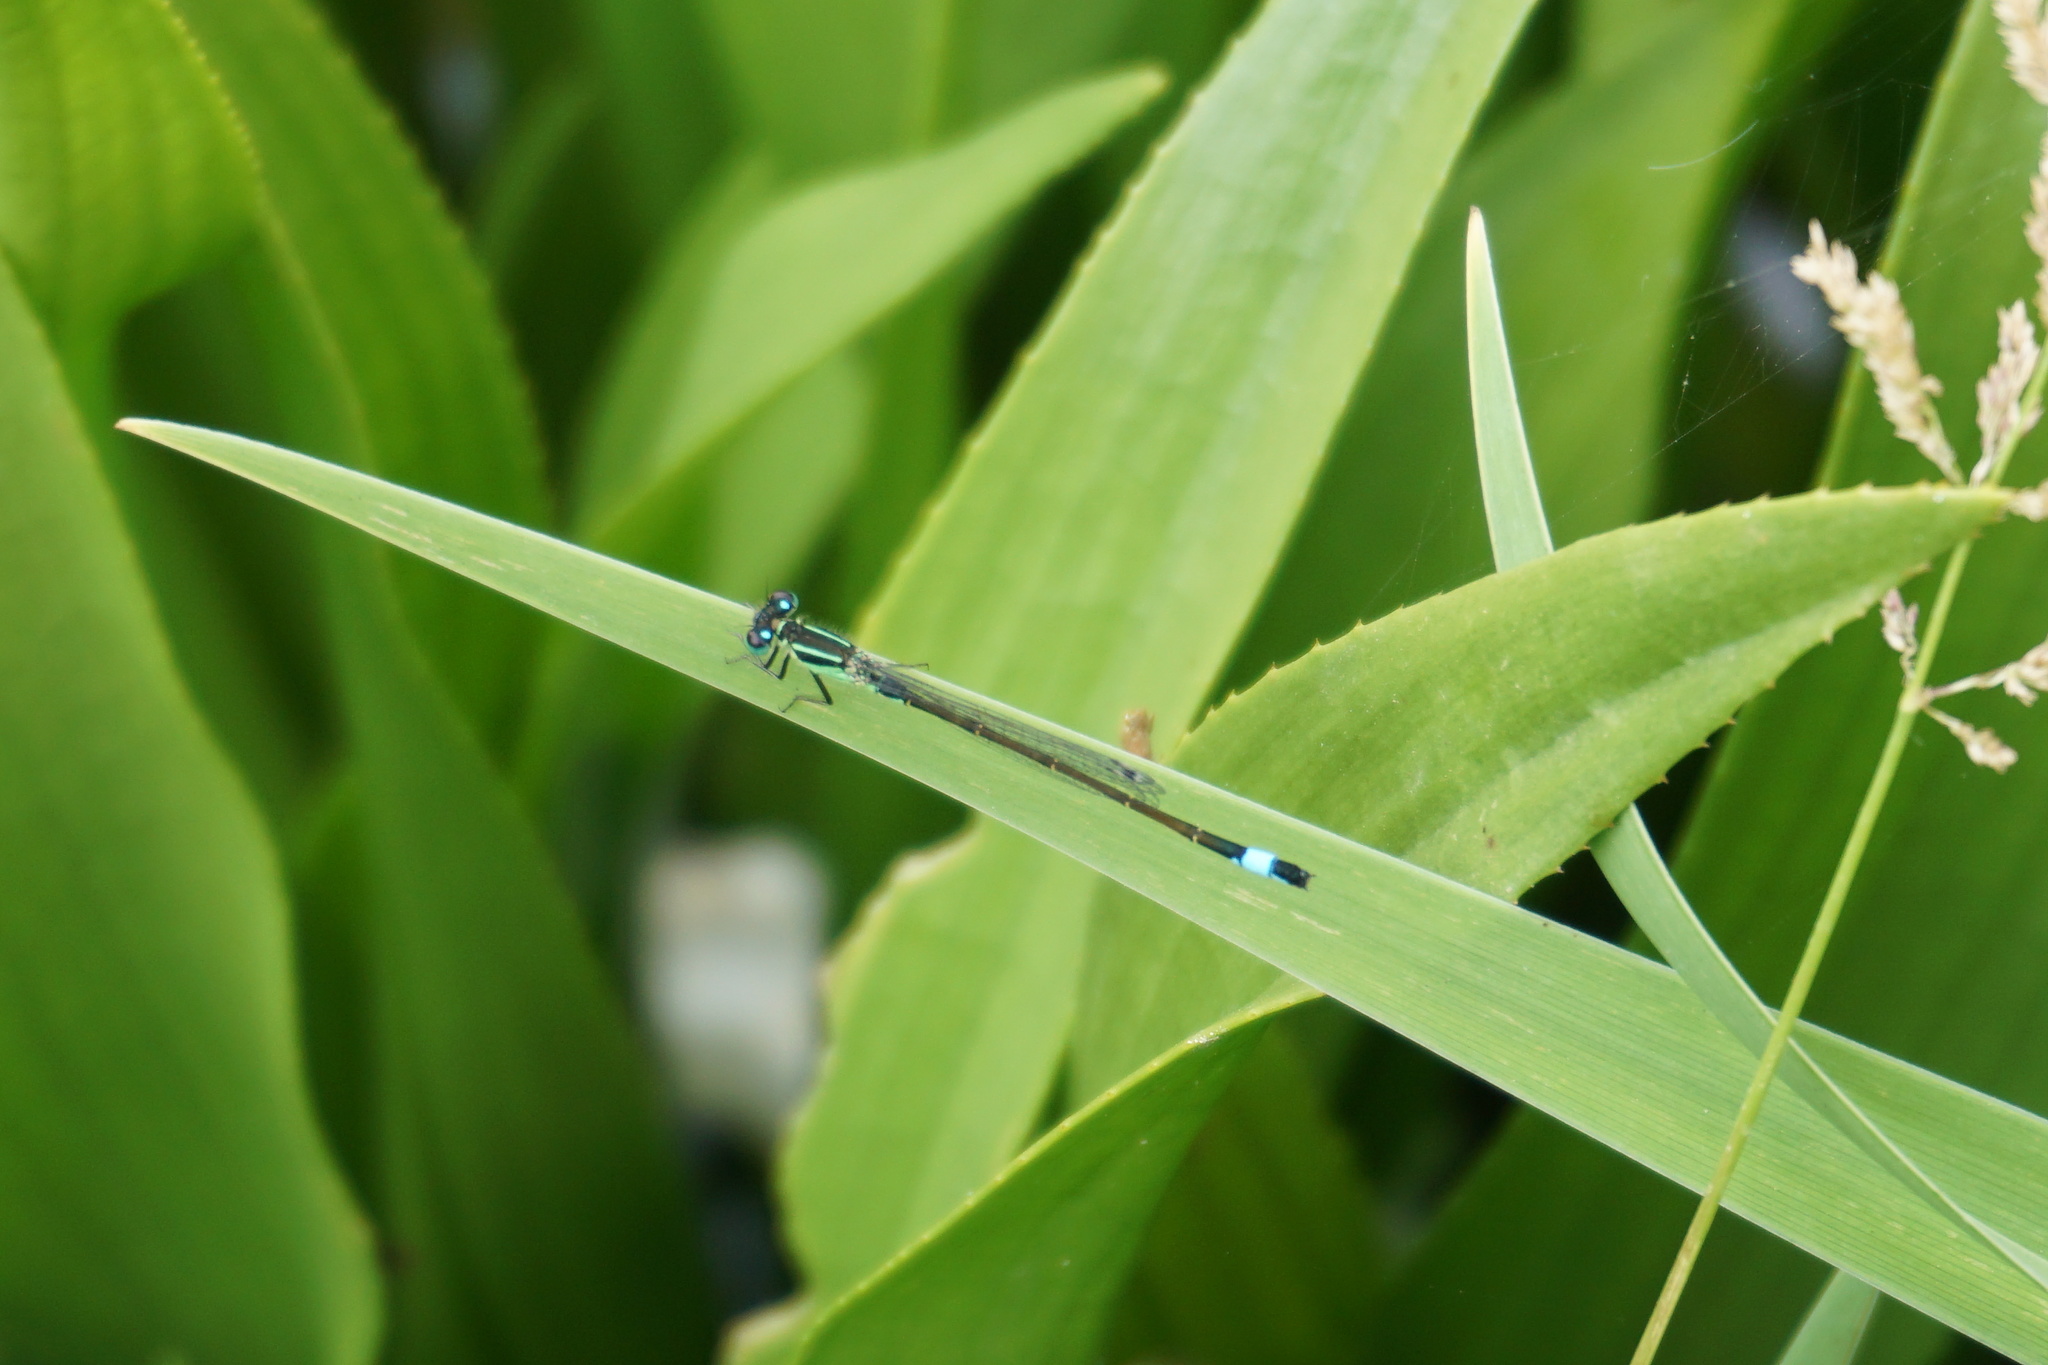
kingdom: Animalia
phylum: Arthropoda
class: Insecta
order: Odonata
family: Coenagrionidae
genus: Ischnura
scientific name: Ischnura elegans
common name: Blue-tailed damselfly
